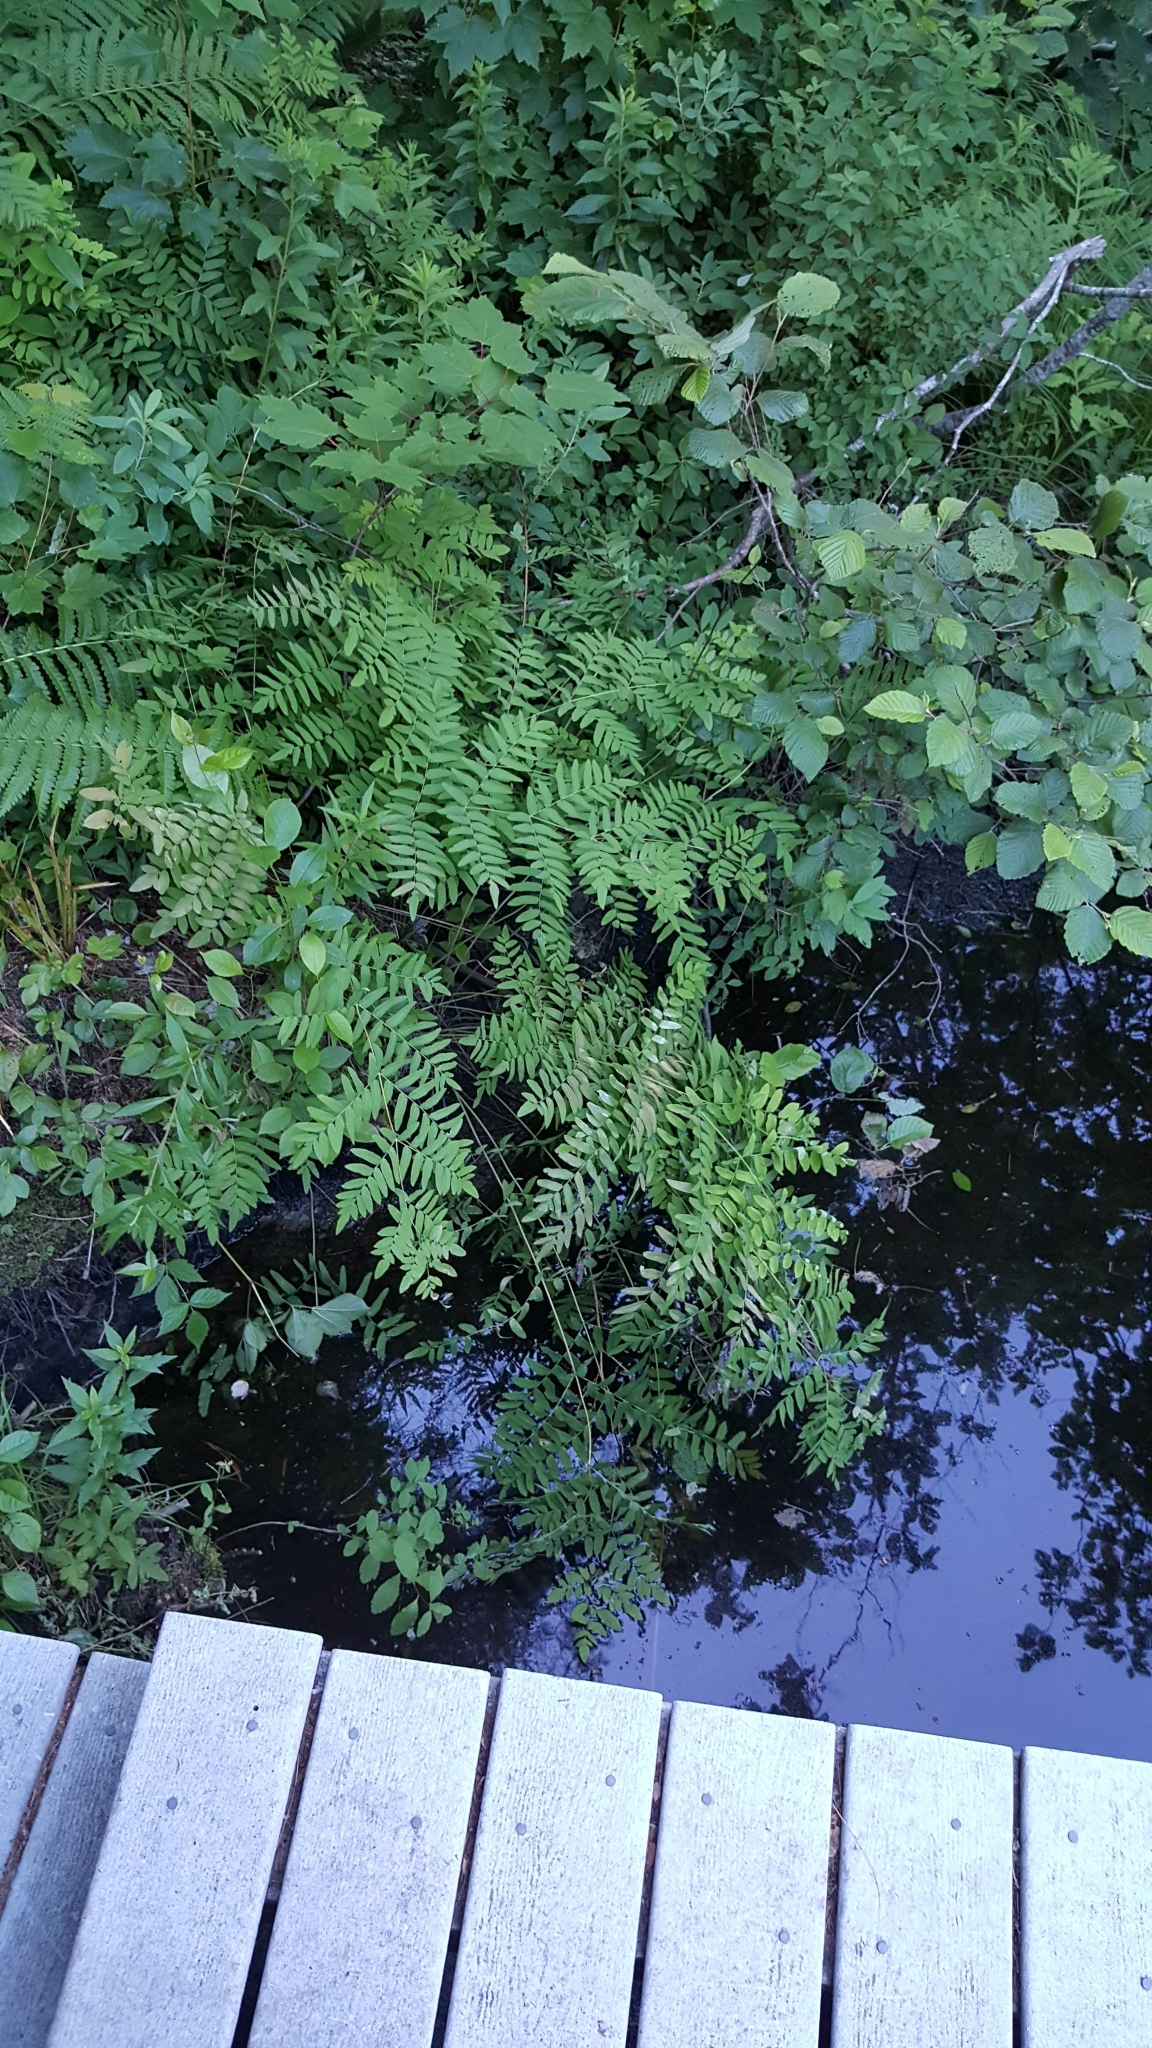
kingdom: Plantae
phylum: Tracheophyta
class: Polypodiopsida
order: Osmundales
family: Osmundaceae
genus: Osmunda
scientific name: Osmunda spectabilis
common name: American royal fern
